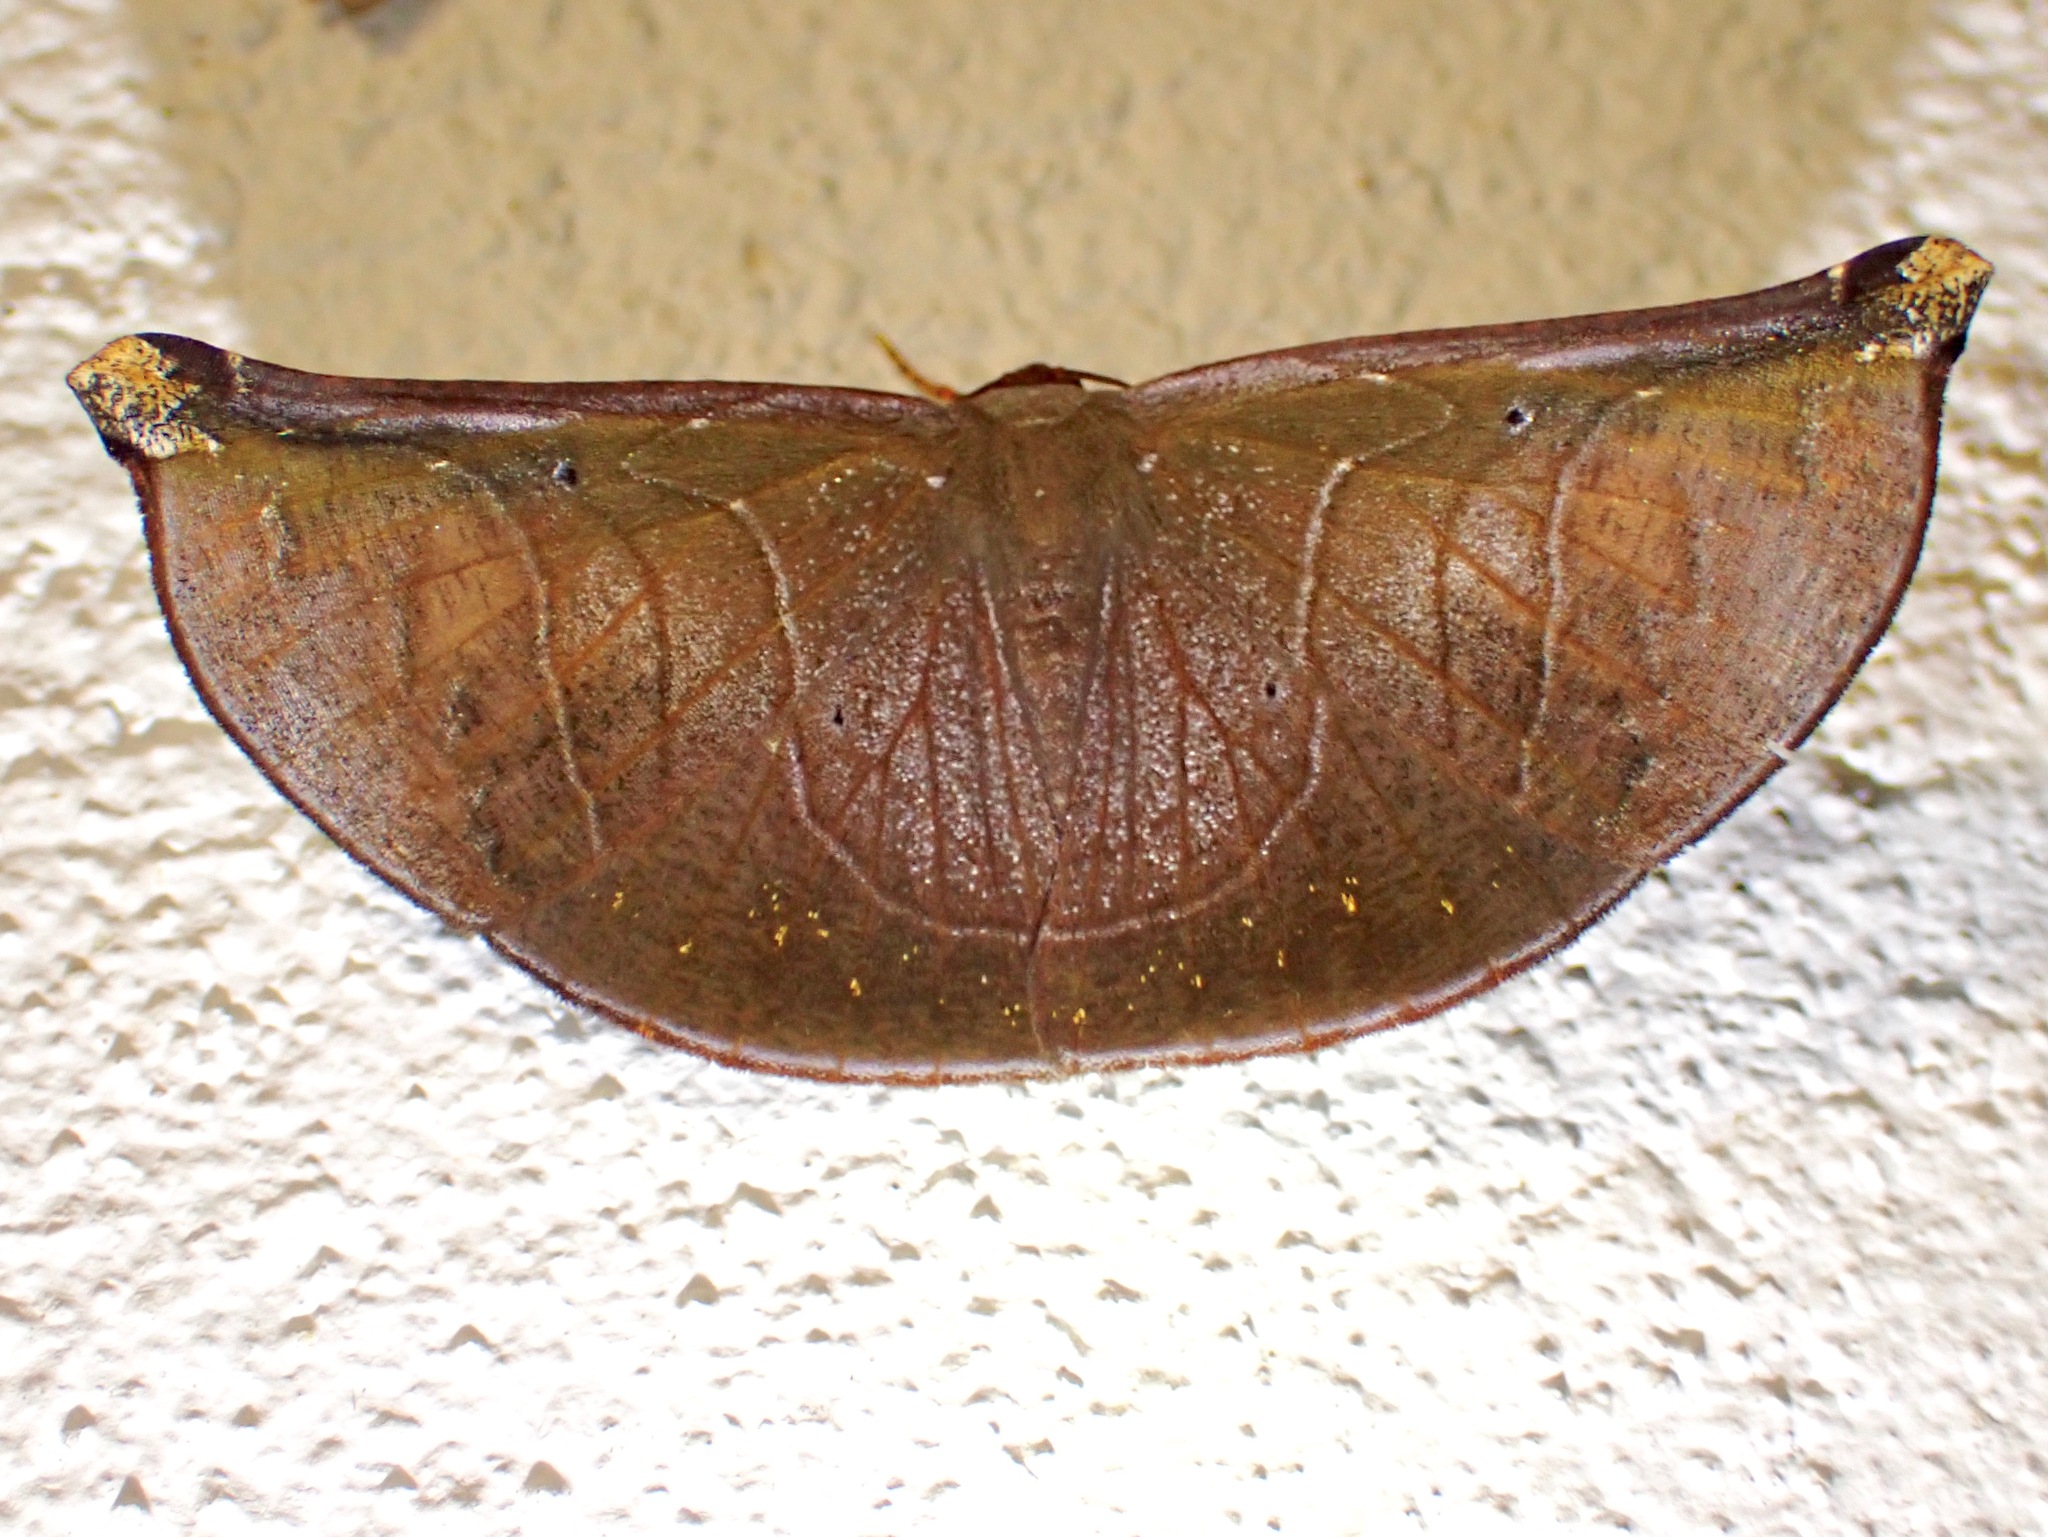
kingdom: Animalia
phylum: Arthropoda
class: Insecta
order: Lepidoptera
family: Geometridae
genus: Cyphoedma
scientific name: Cyphoedma transvolutata
